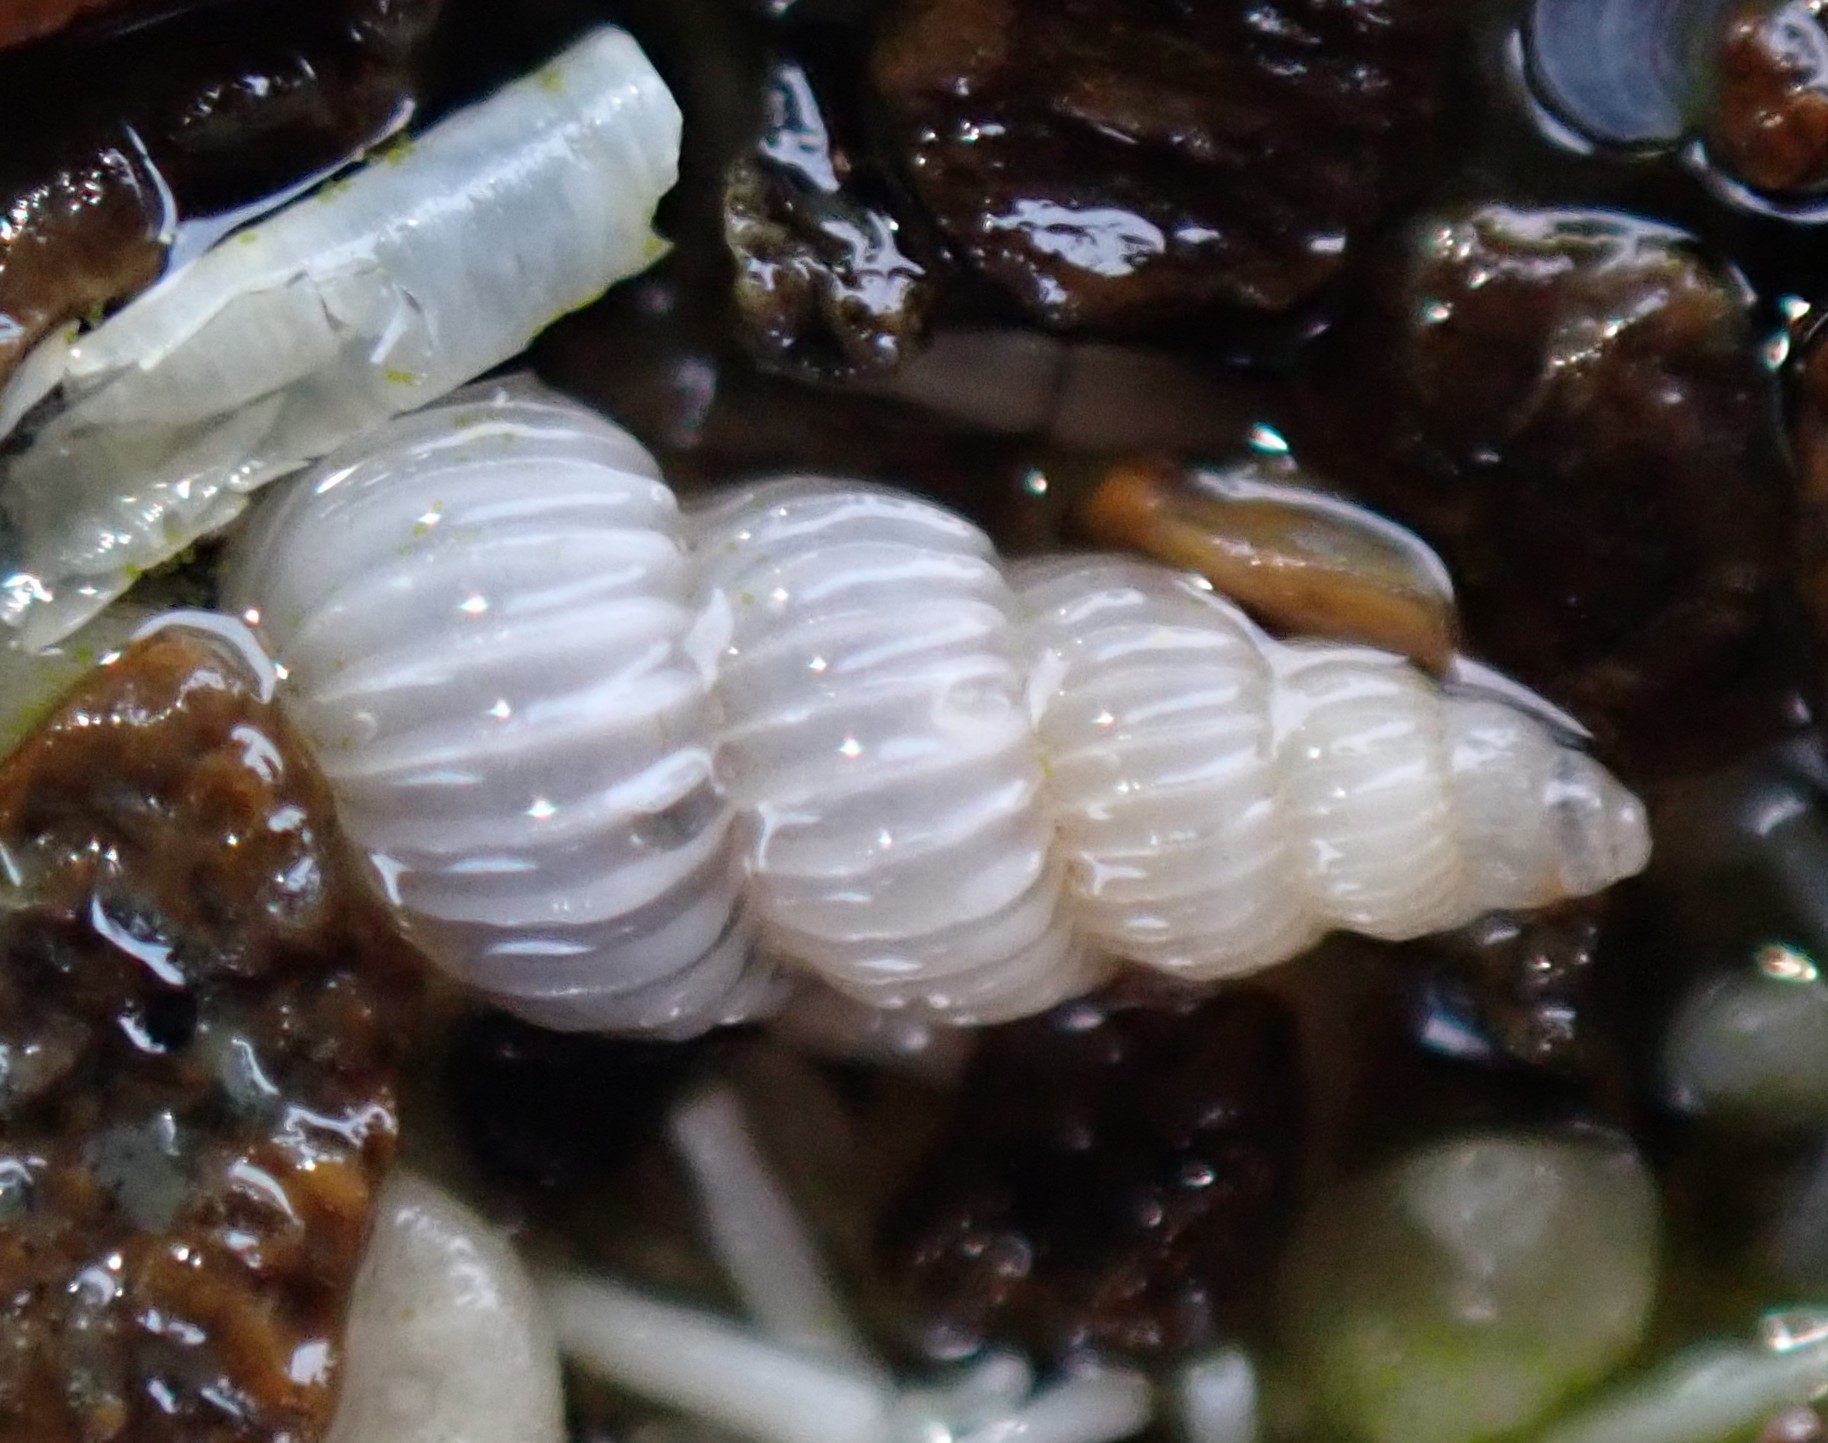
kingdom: Animalia
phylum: Mollusca
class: Gastropoda
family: Epitoniidae
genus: Epitonium
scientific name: Epitonium jukesianum
